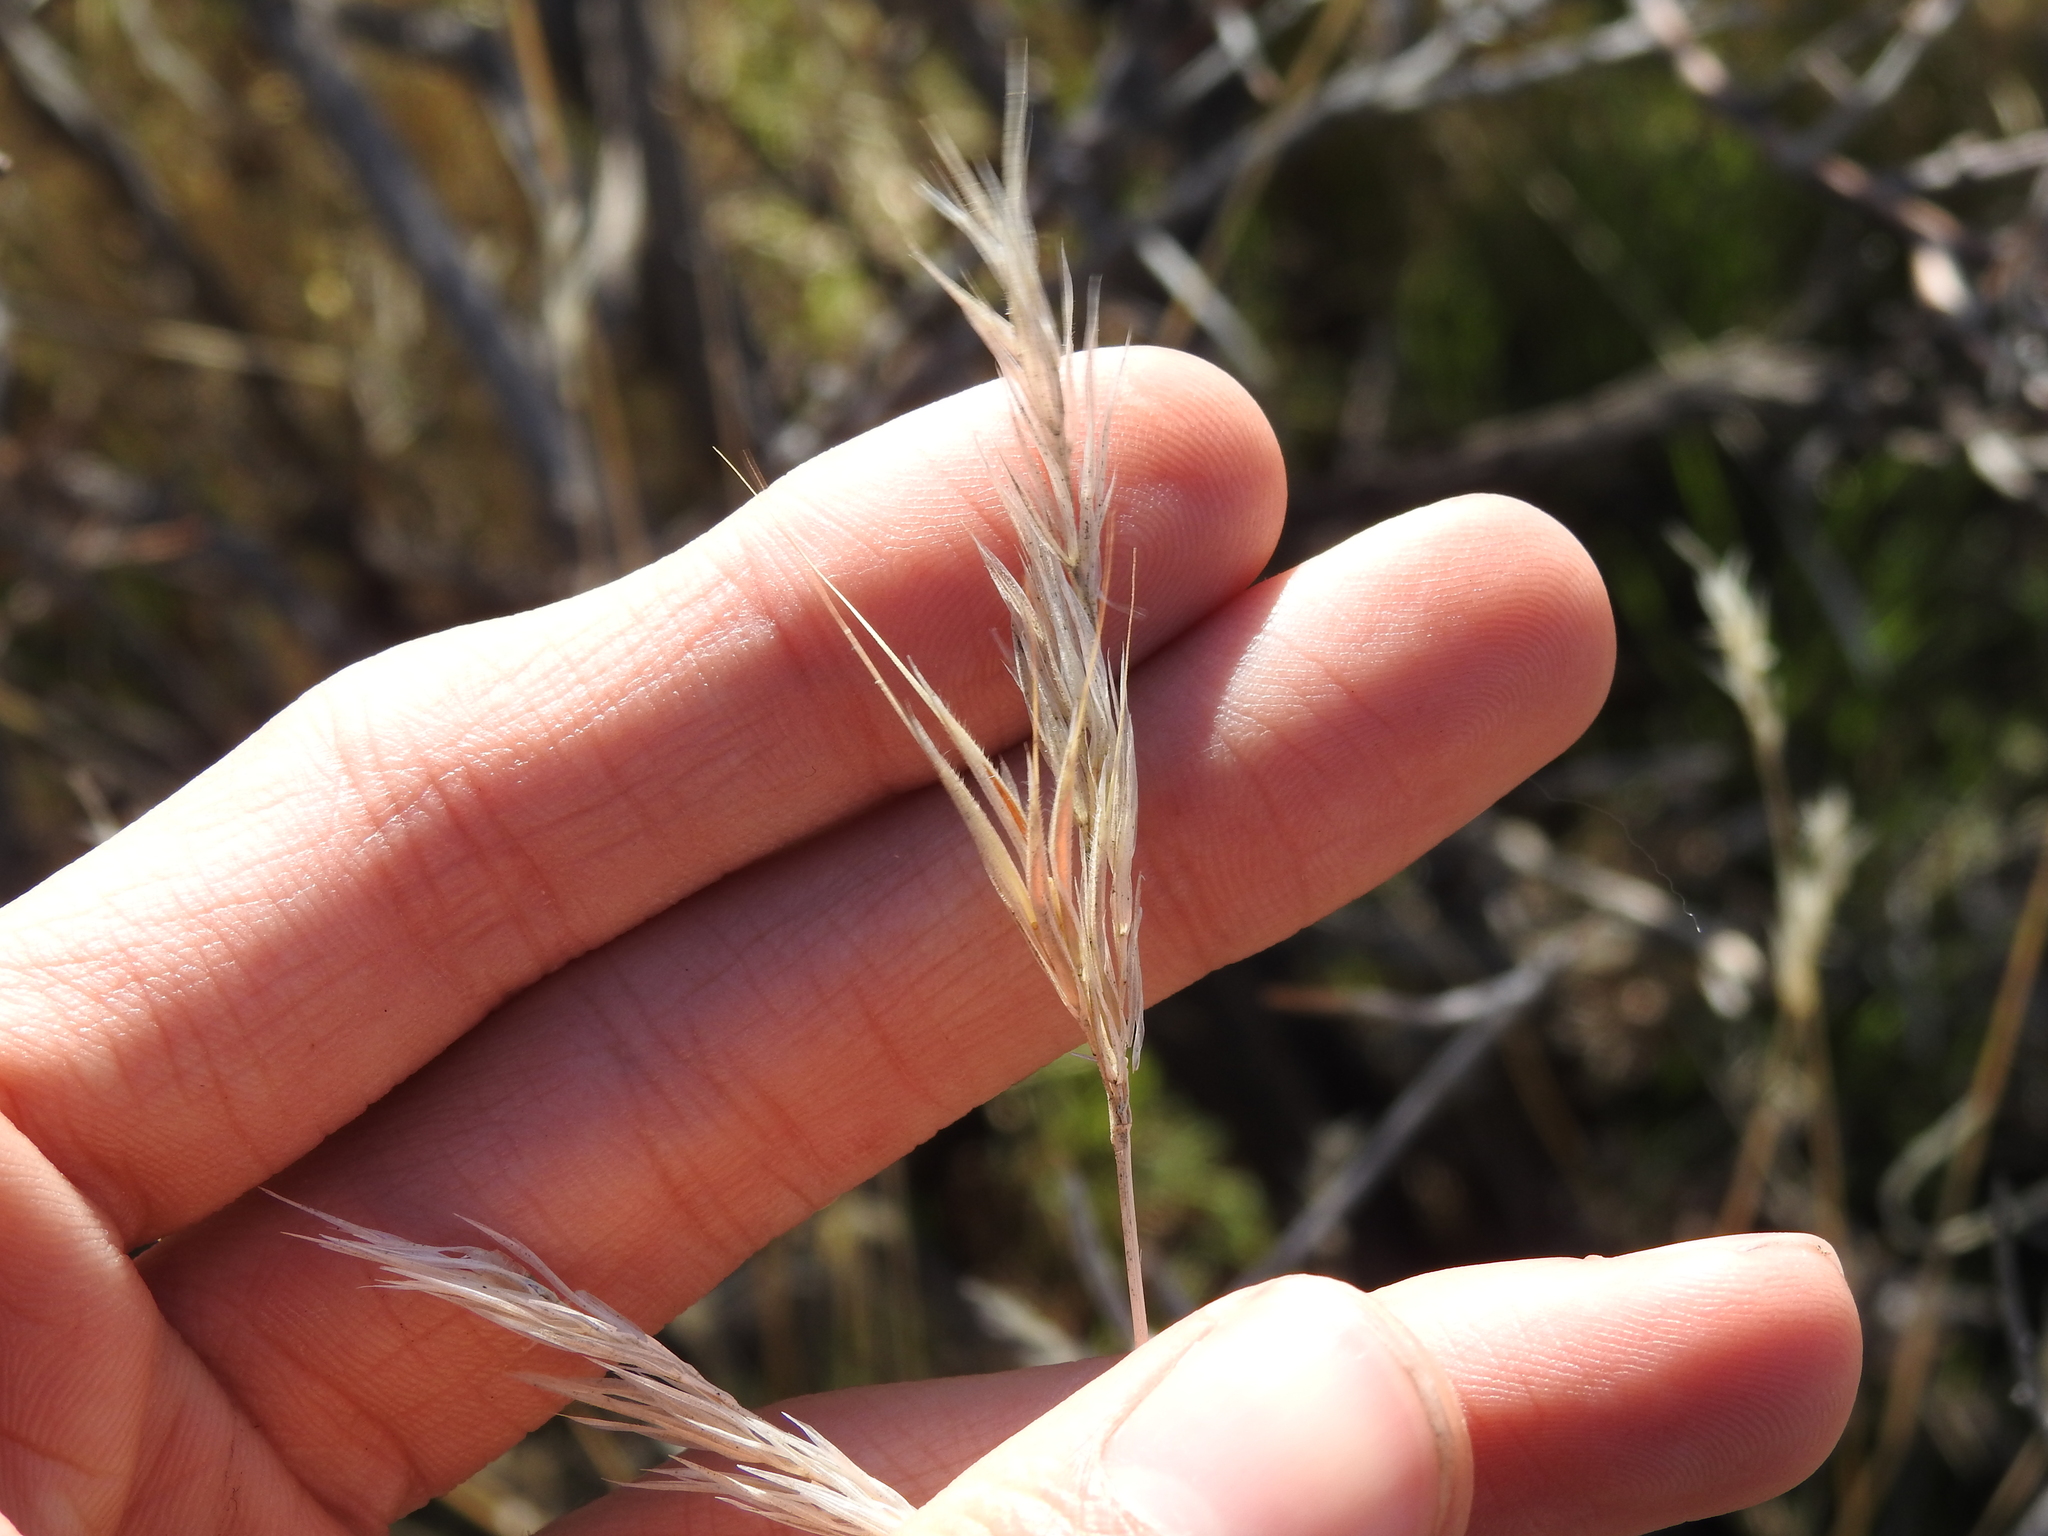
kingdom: Plantae
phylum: Tracheophyta
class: Liliopsida
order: Poales
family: Poaceae
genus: Bromus
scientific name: Bromus rubens
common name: Red brome
